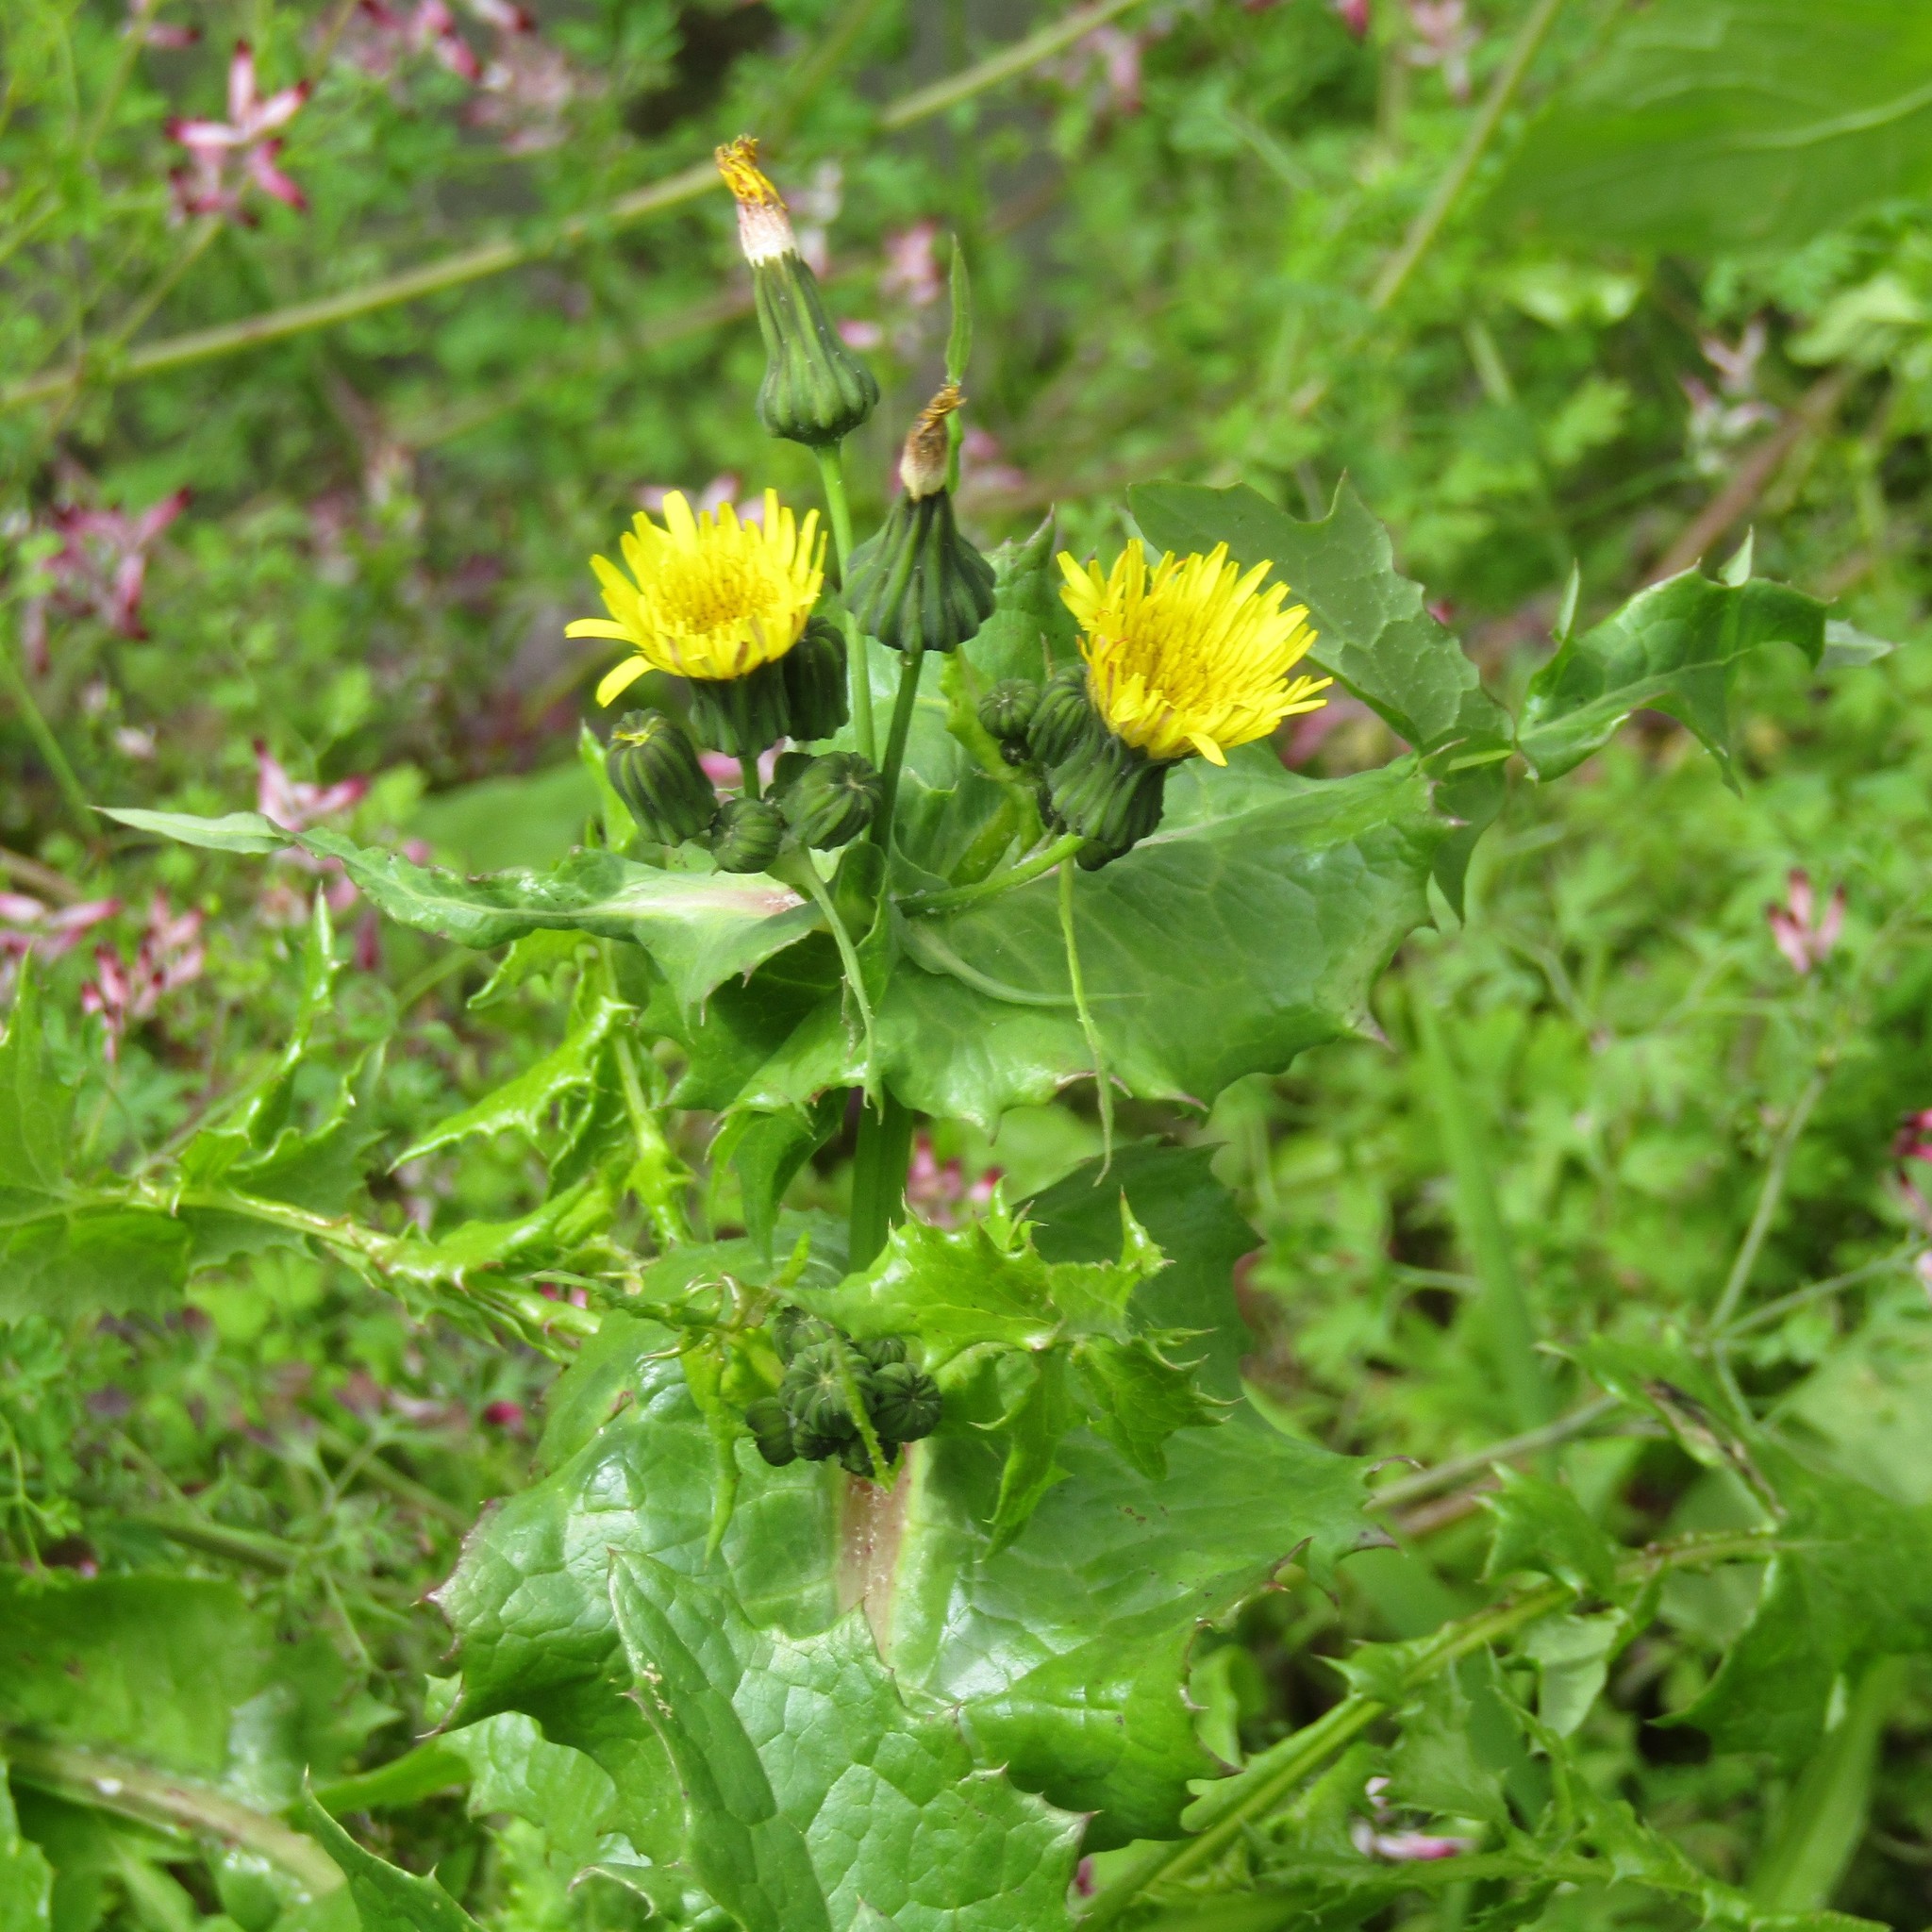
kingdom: Plantae
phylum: Tracheophyta
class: Magnoliopsida
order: Asterales
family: Asteraceae
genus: Sonchus
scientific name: Sonchus oleraceus
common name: Common sowthistle
